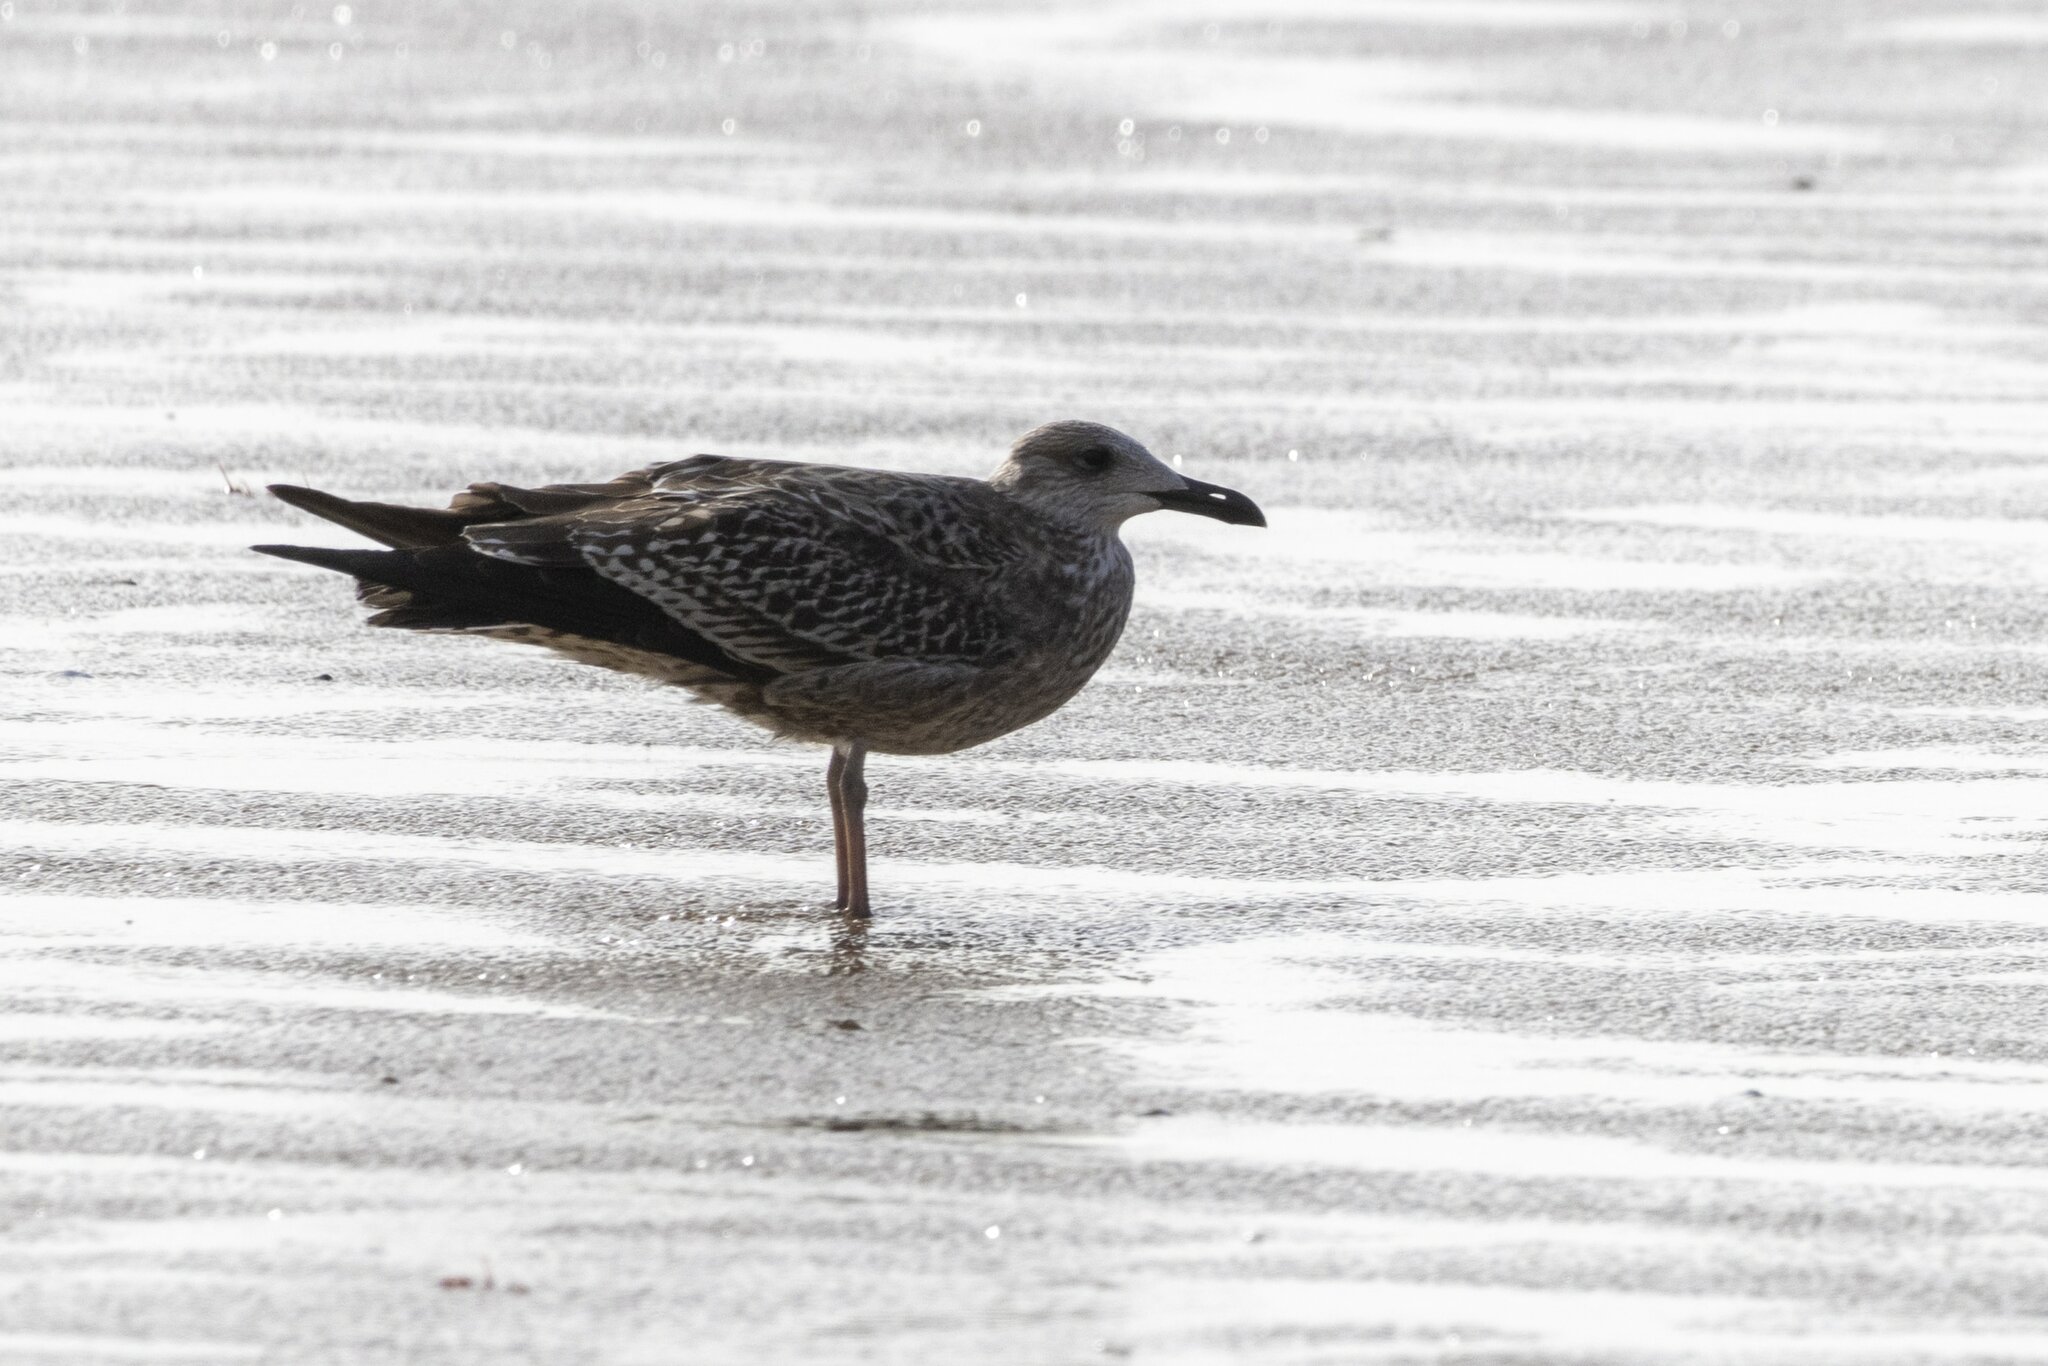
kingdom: Animalia
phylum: Chordata
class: Aves
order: Charadriiformes
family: Laridae
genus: Larus
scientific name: Larus fuscus
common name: Lesser black-backed gull
